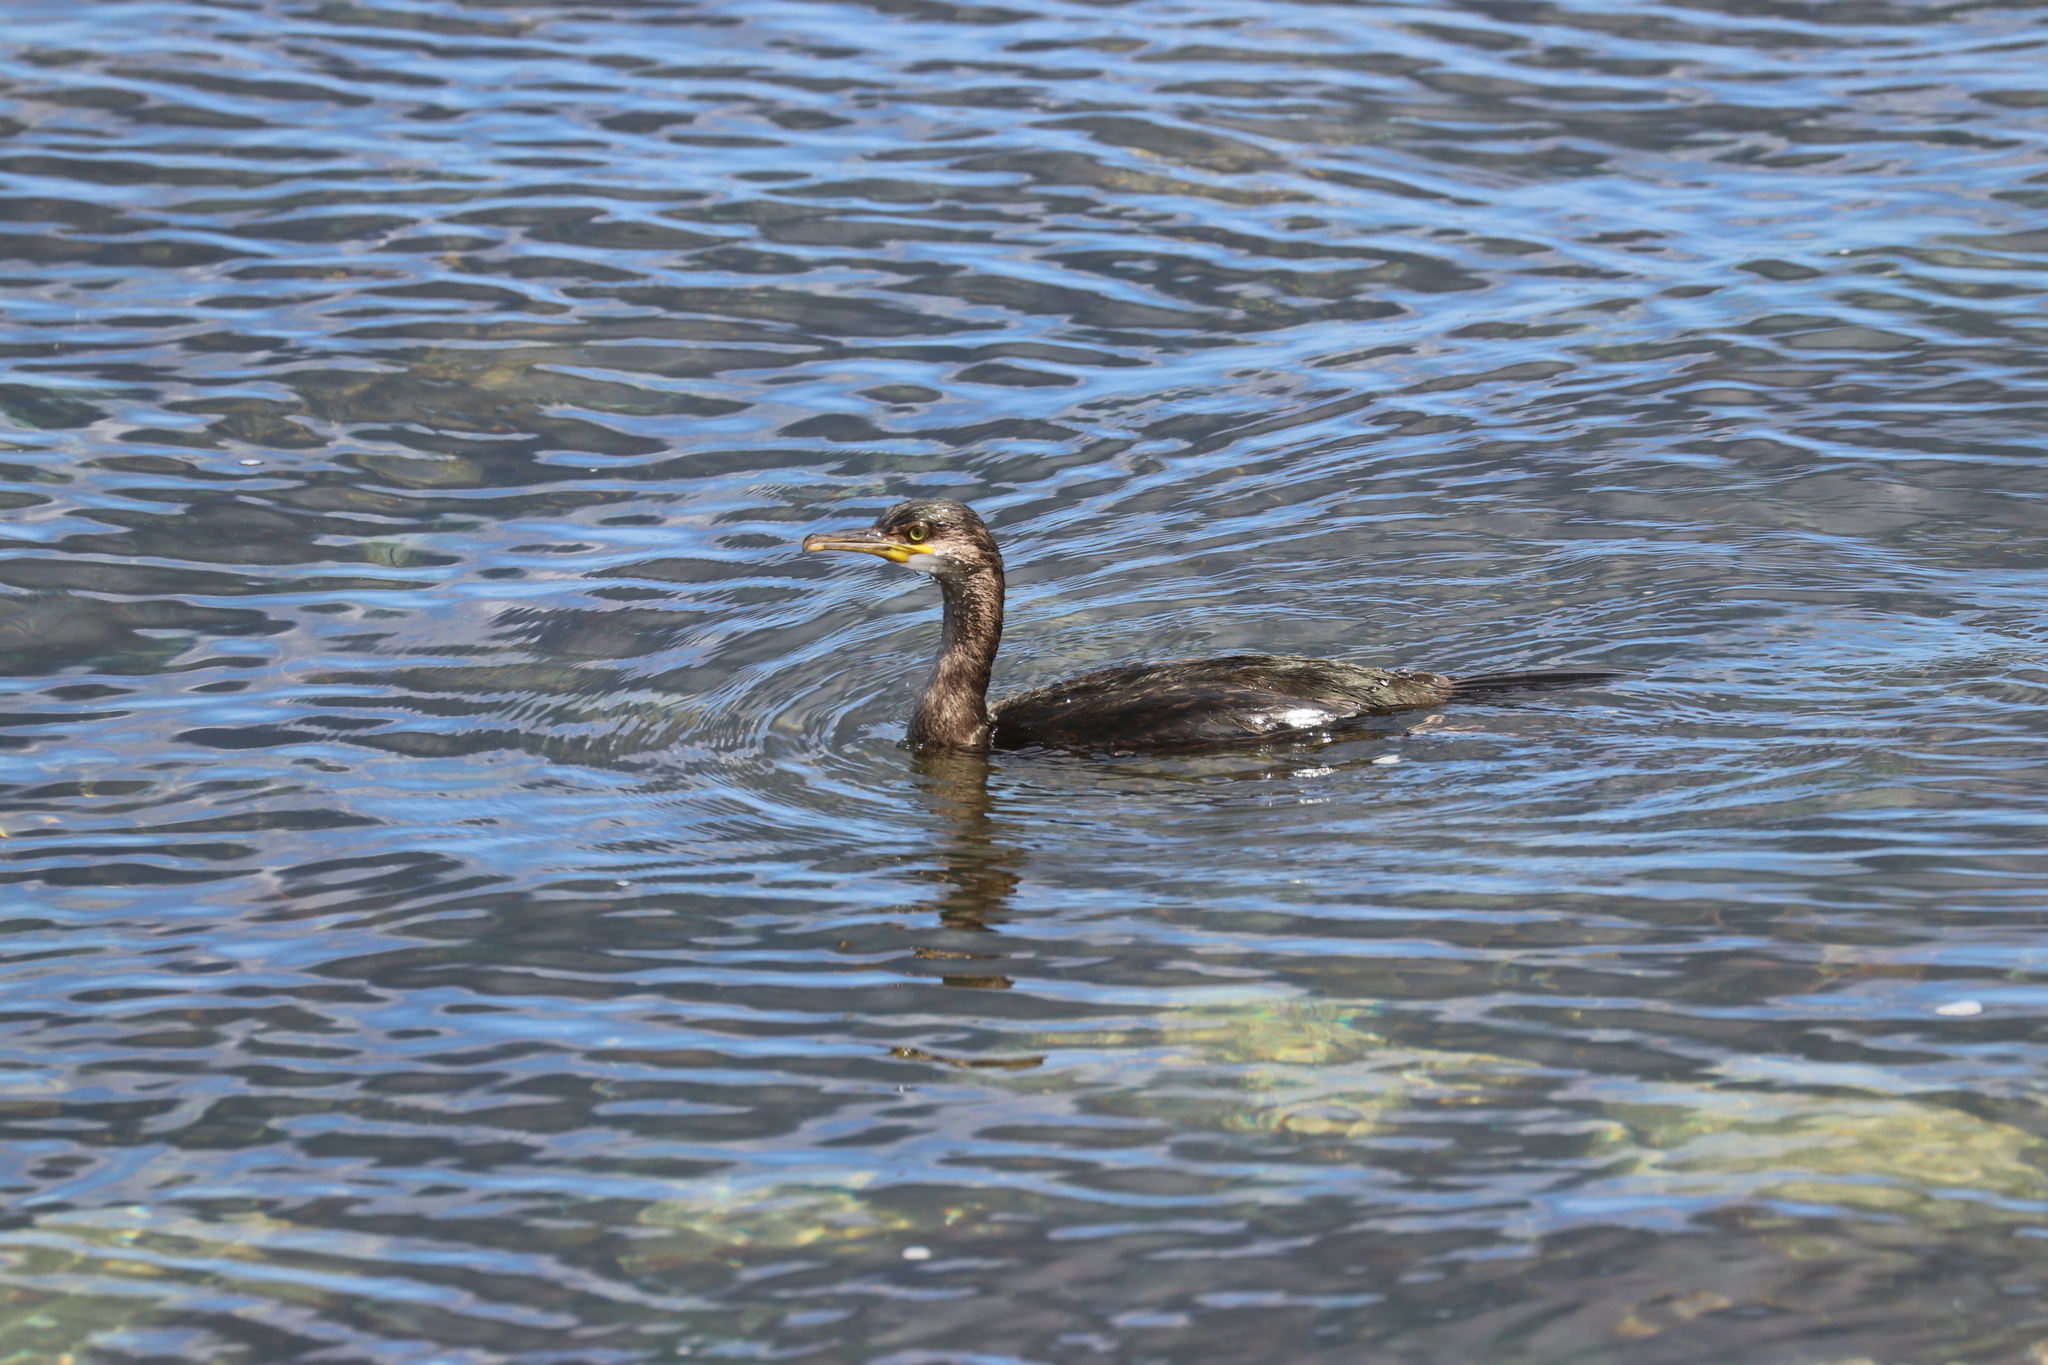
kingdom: Animalia
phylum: Chordata
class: Aves
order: Suliformes
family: Phalacrocoracidae
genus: Phalacrocorax
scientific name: Phalacrocorax aristotelis
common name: European shag
